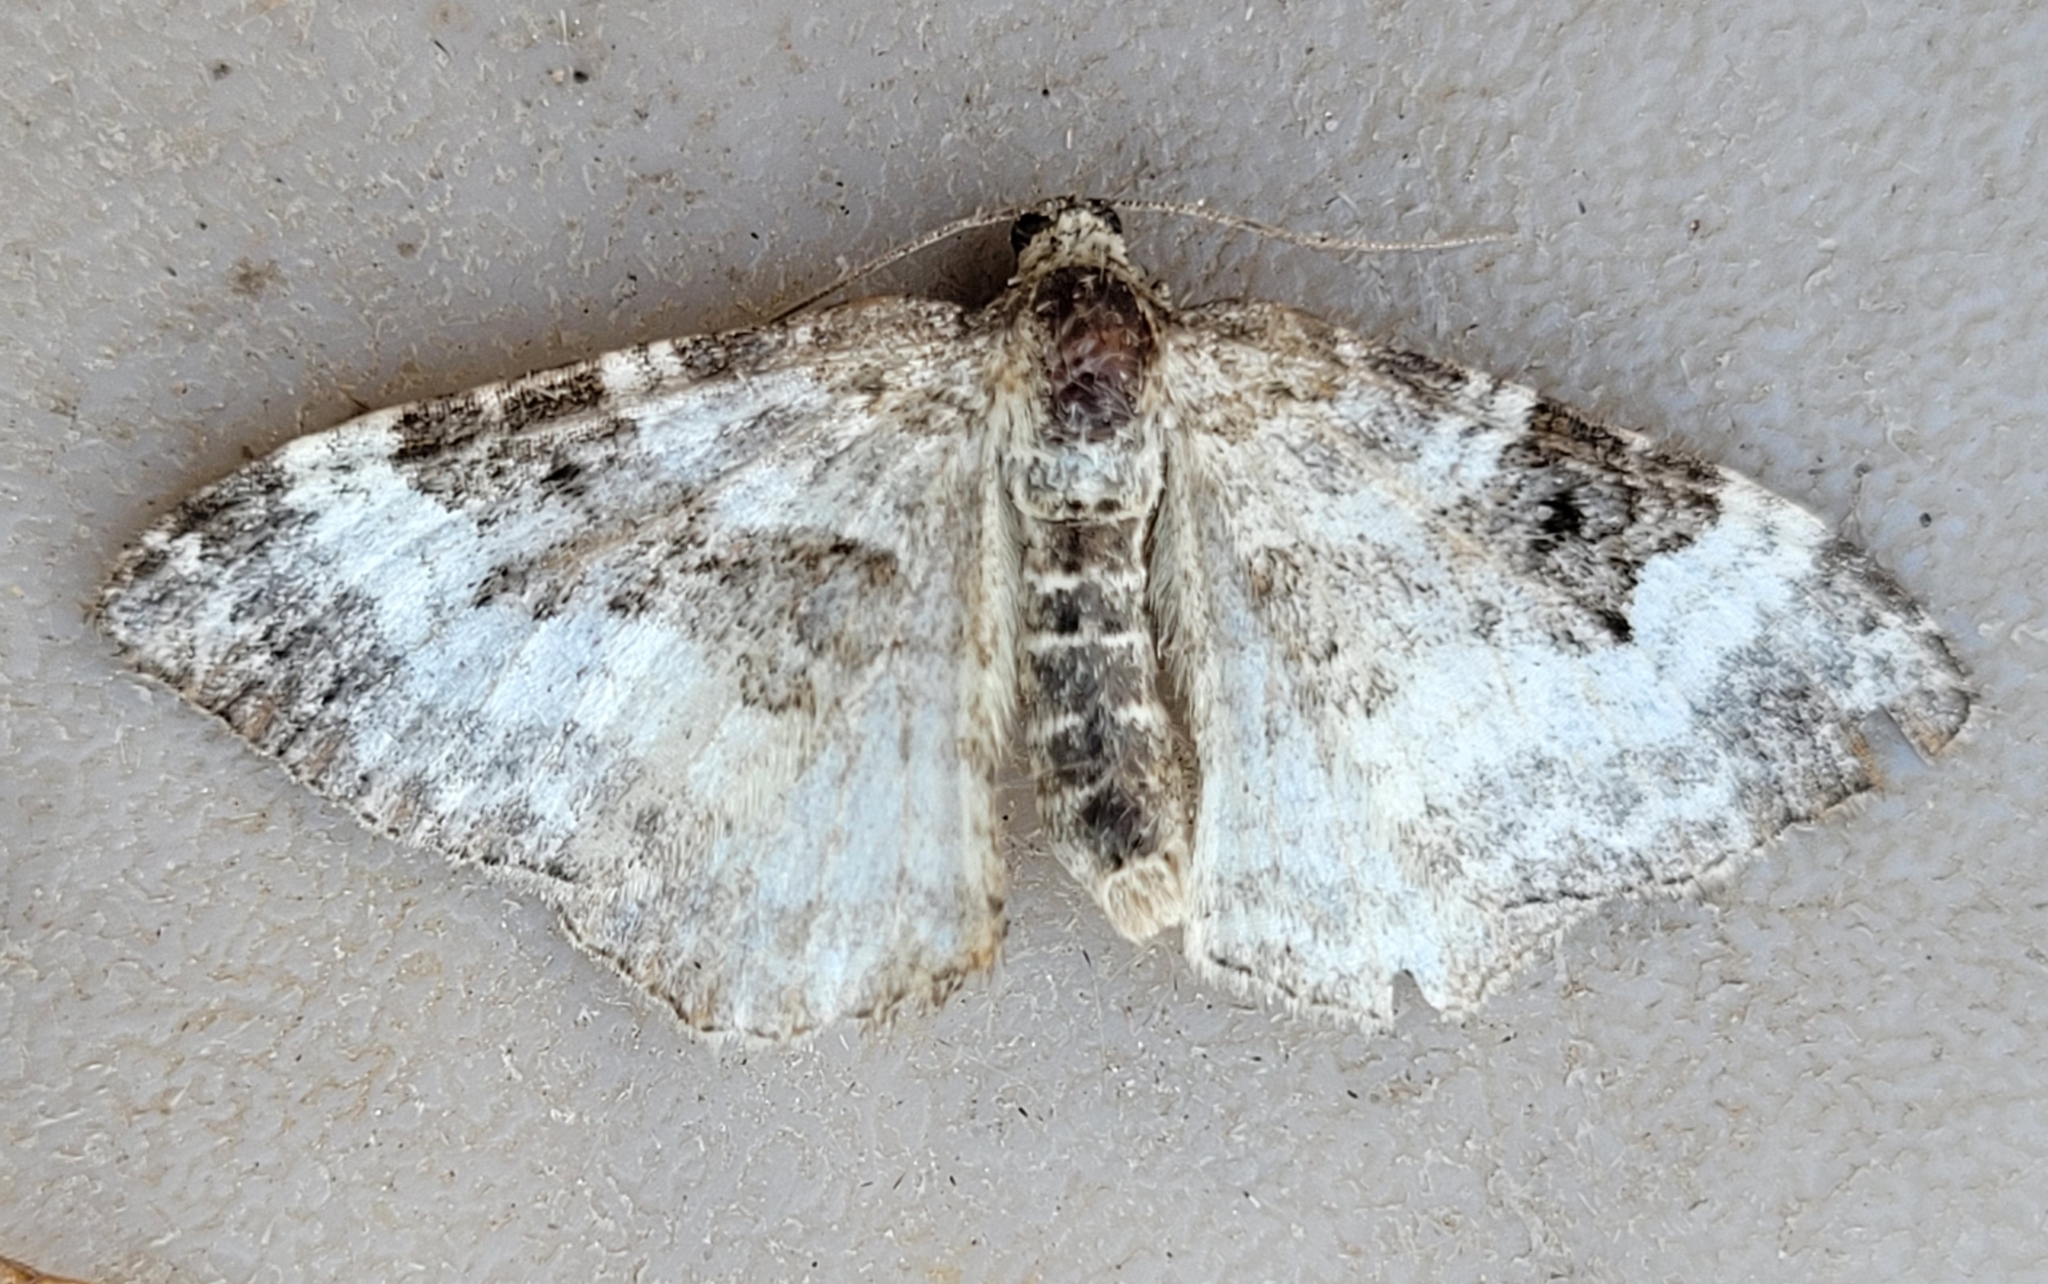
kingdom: Animalia
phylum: Arthropoda
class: Insecta
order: Lepidoptera
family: Geometridae
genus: Epirrhoe
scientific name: Epirrhoe alternata
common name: Common carpet
